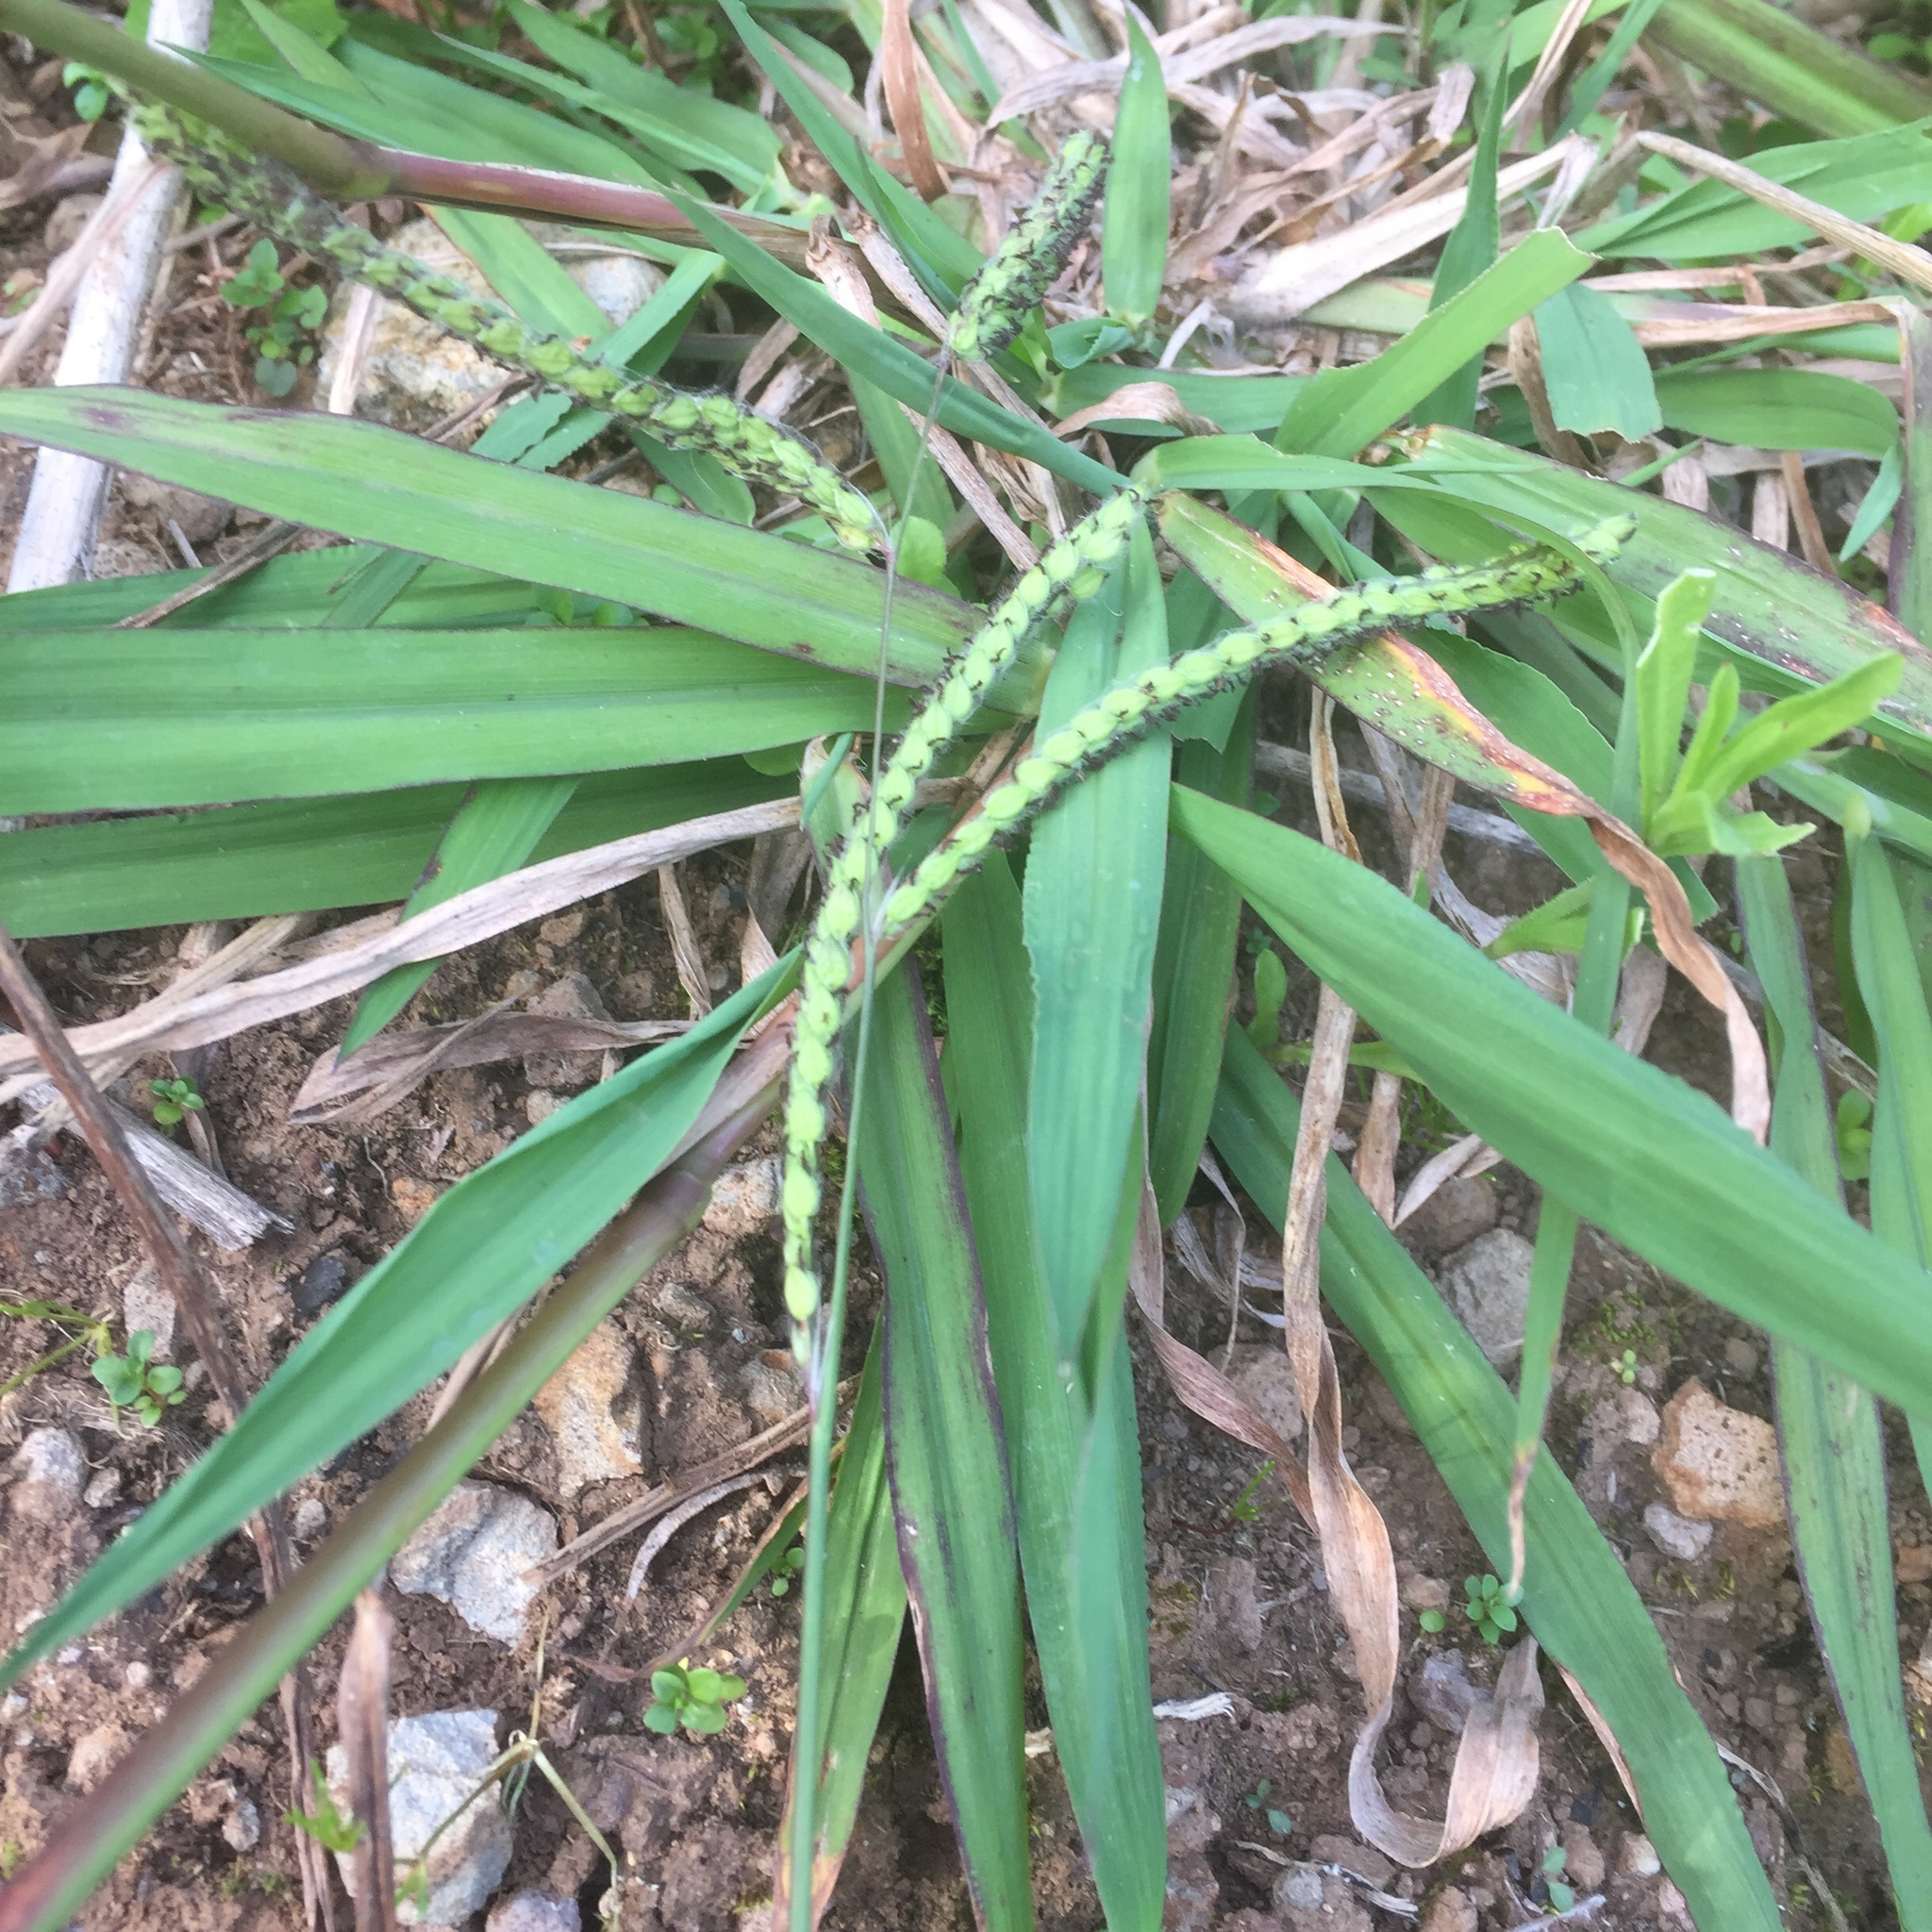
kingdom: Plantae
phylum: Tracheophyta
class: Liliopsida
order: Poales
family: Poaceae
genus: Paspalum
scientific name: Paspalum dilatatum
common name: Dallisgrass
